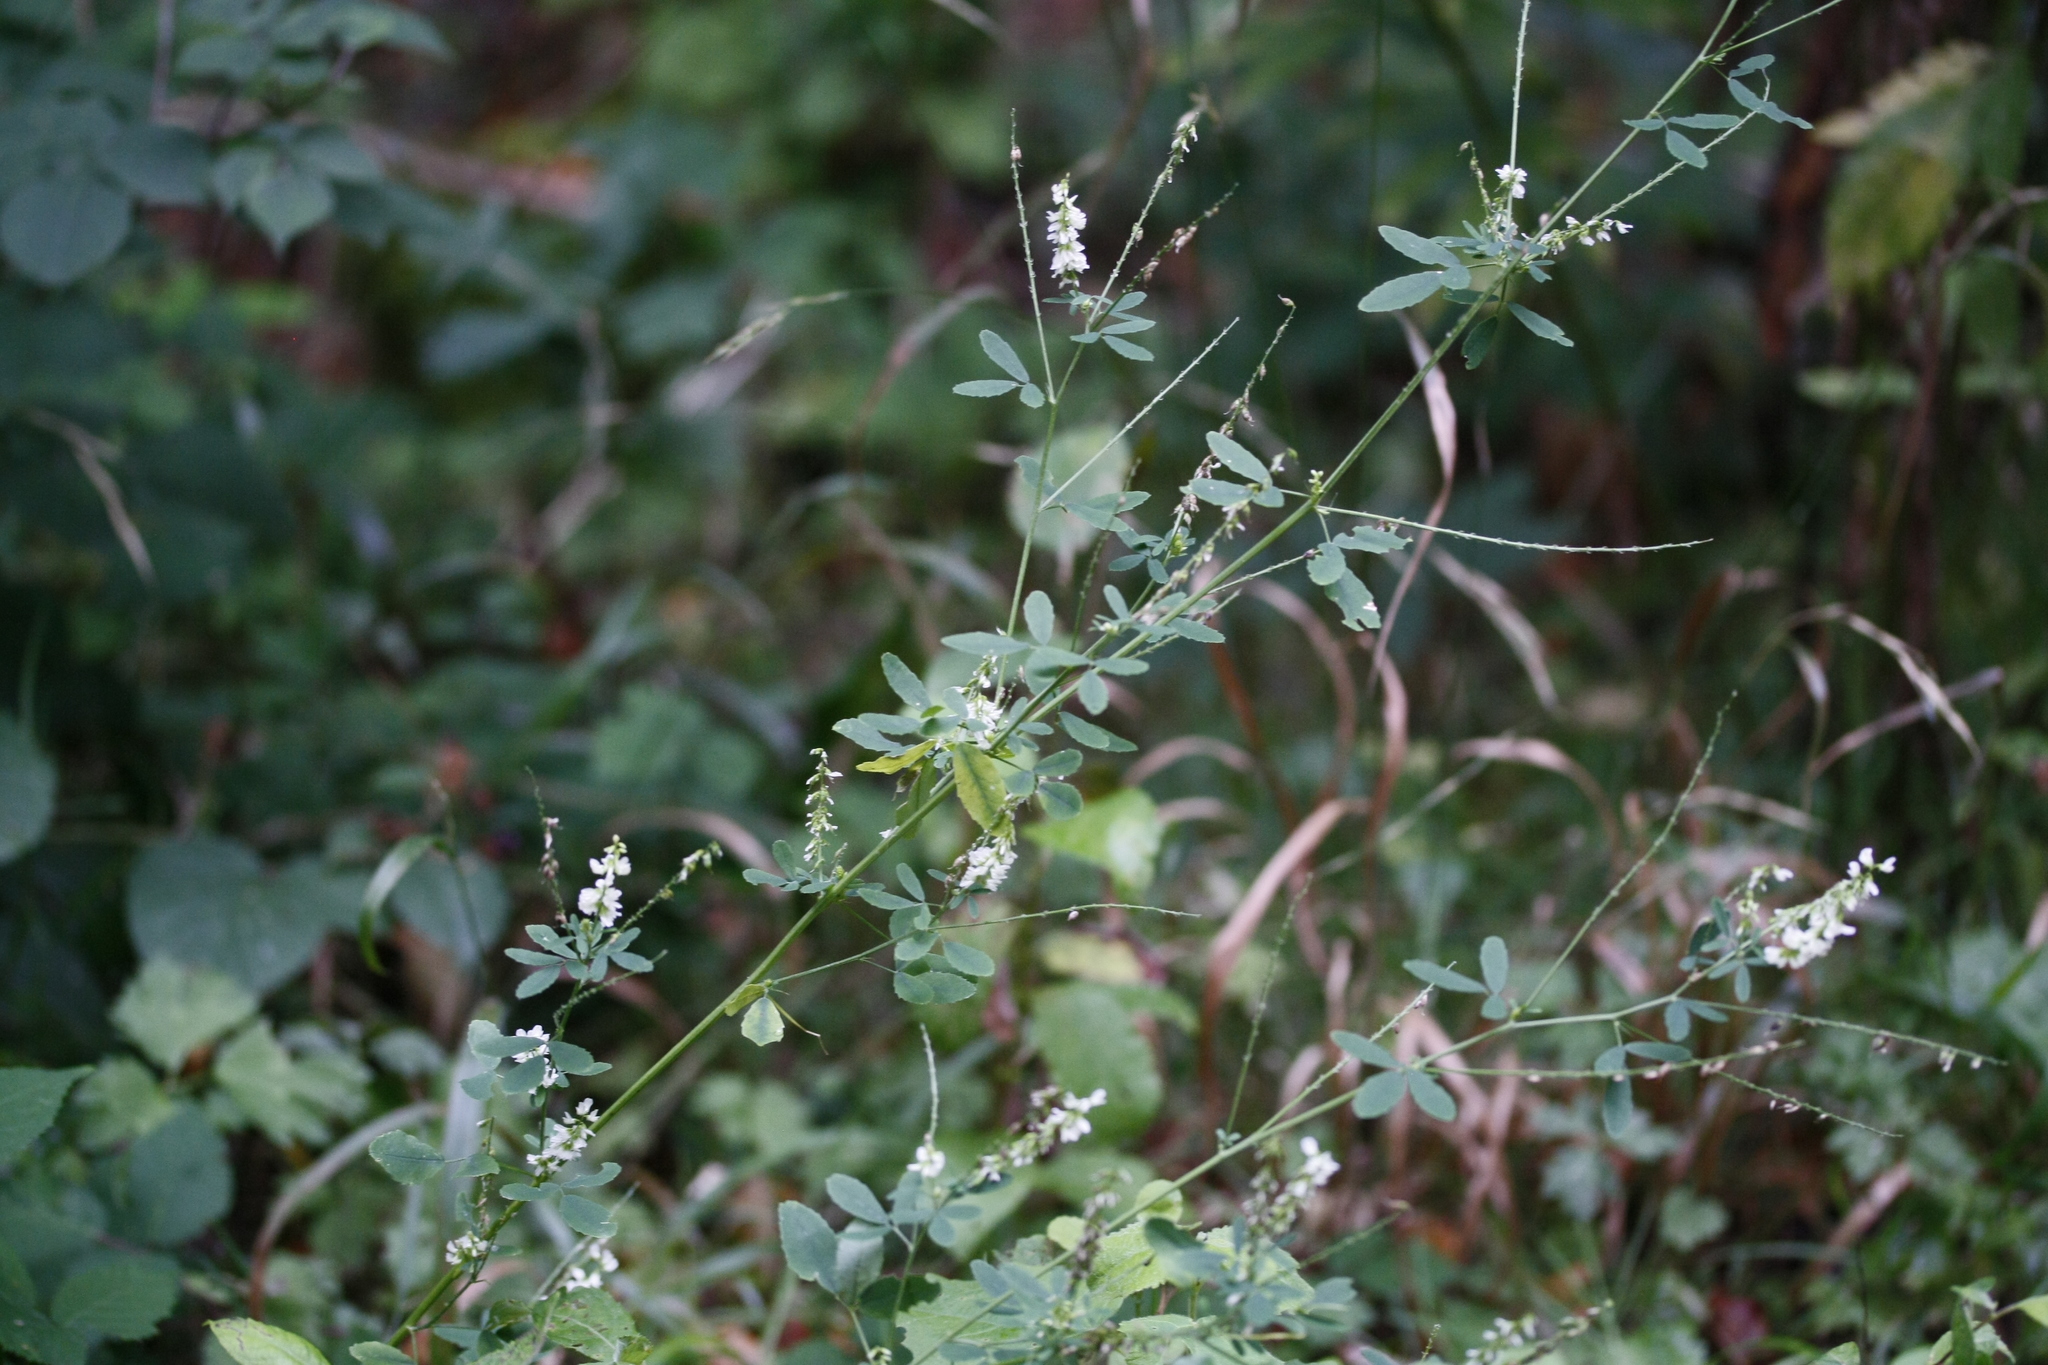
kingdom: Plantae
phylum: Tracheophyta
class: Magnoliopsida
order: Fabales
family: Fabaceae
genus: Melilotus
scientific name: Melilotus albus
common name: White melilot
